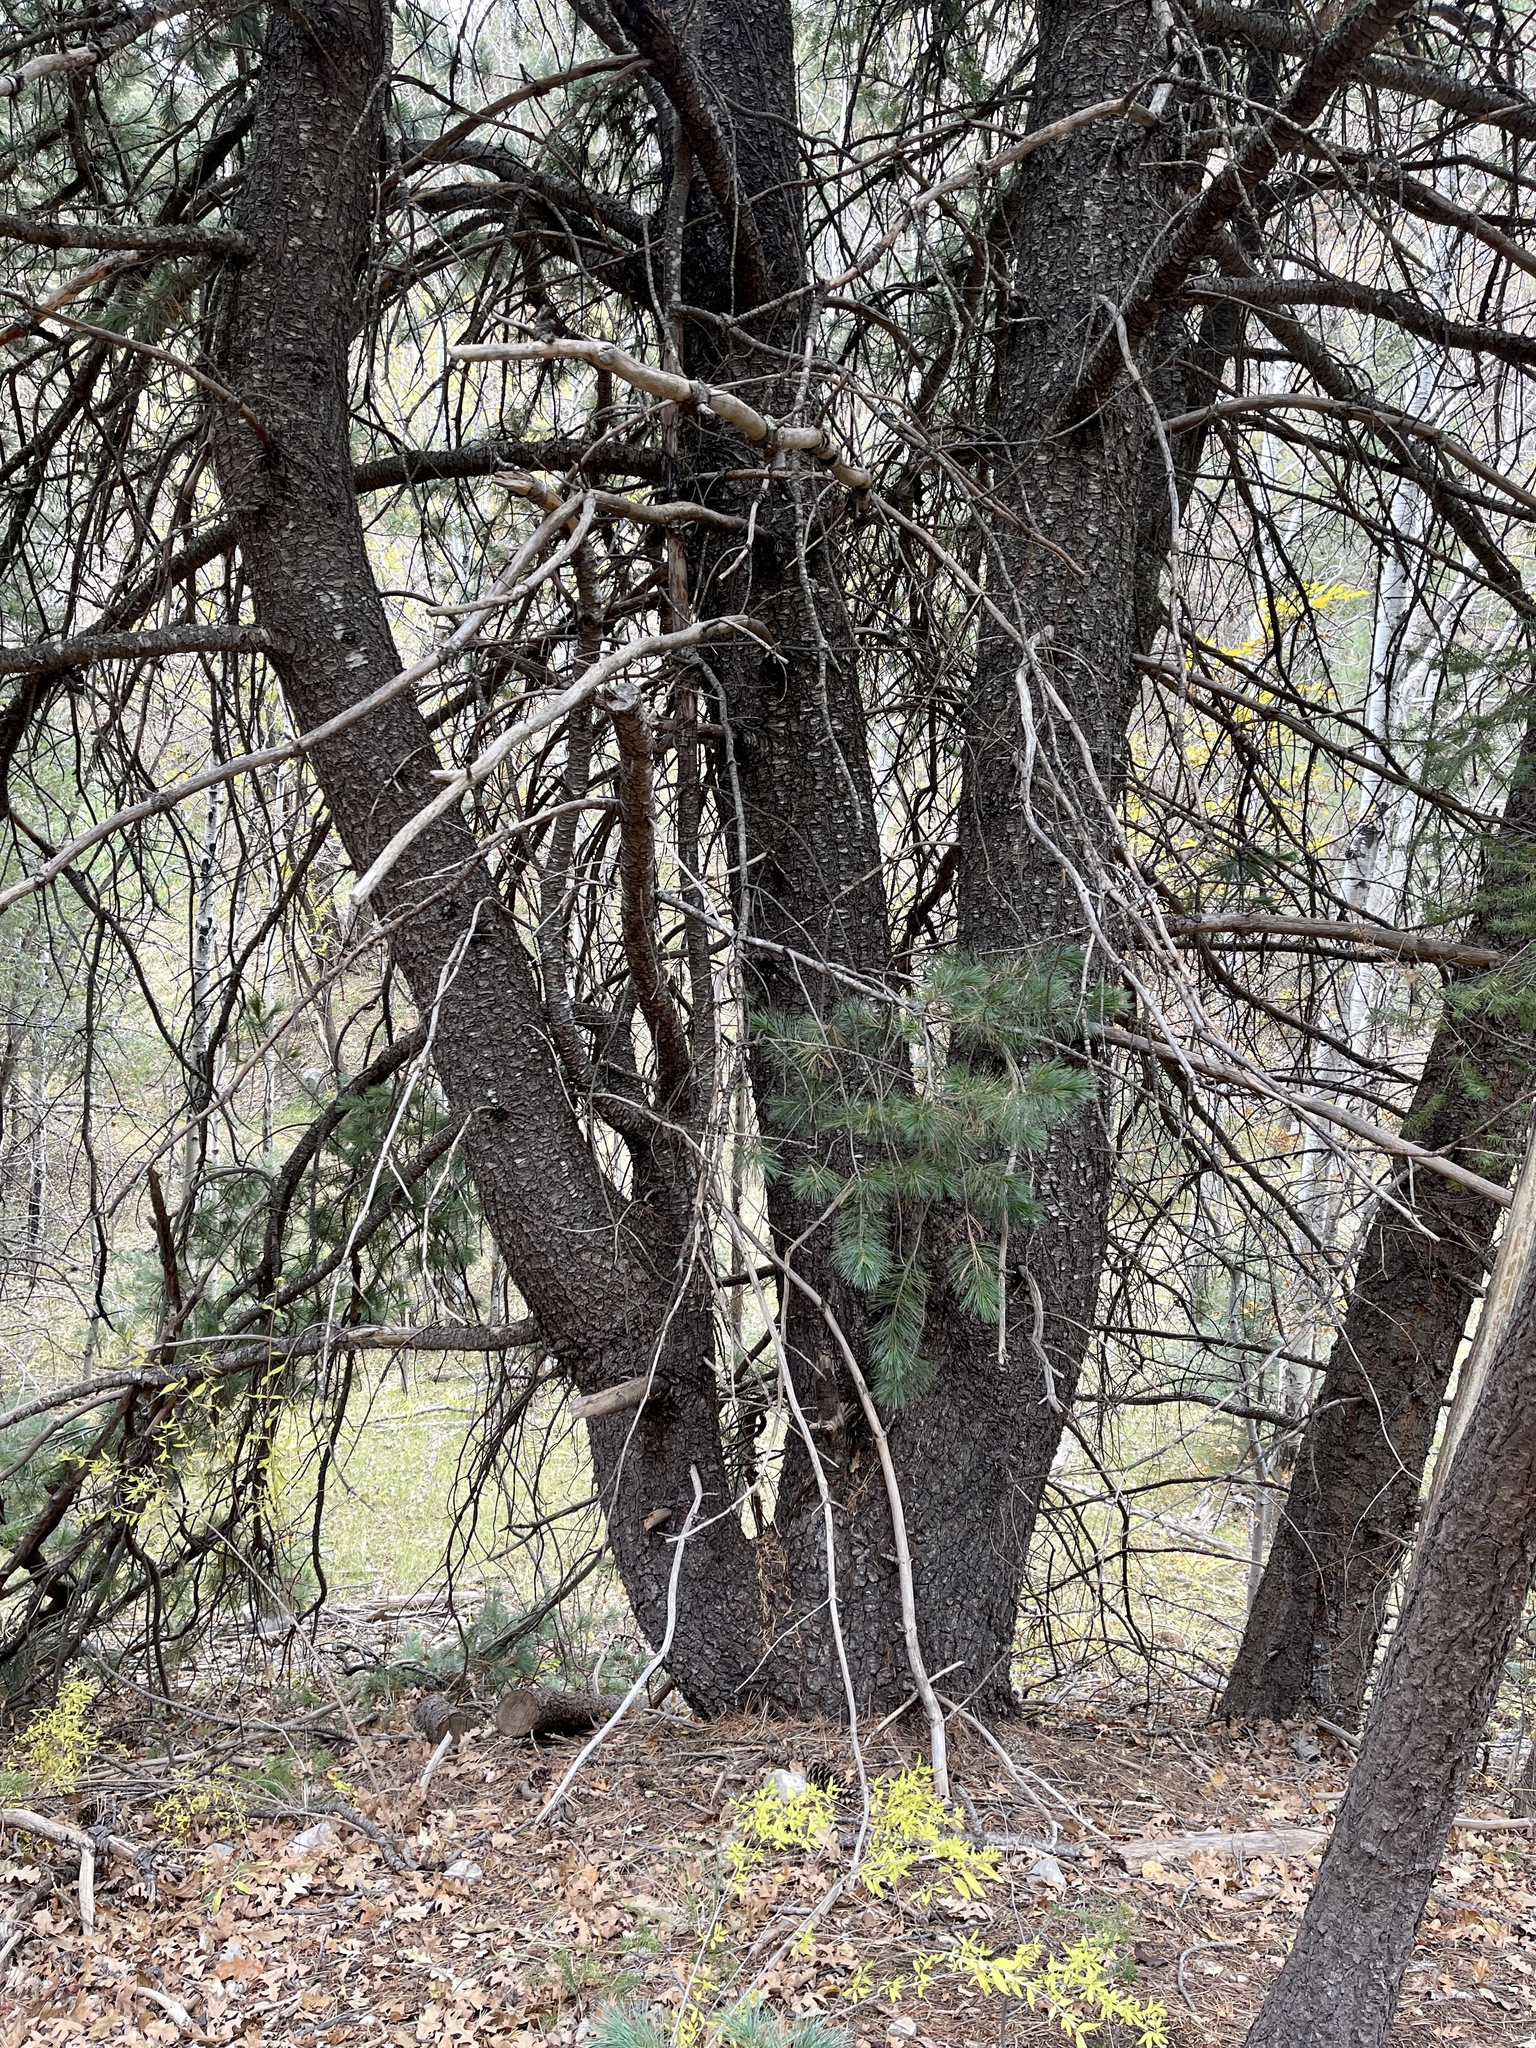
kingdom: Plantae
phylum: Tracheophyta
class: Pinopsida
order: Pinales
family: Pinaceae
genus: Pinus
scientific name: Pinus strobiformis
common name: Southwestern white pine
